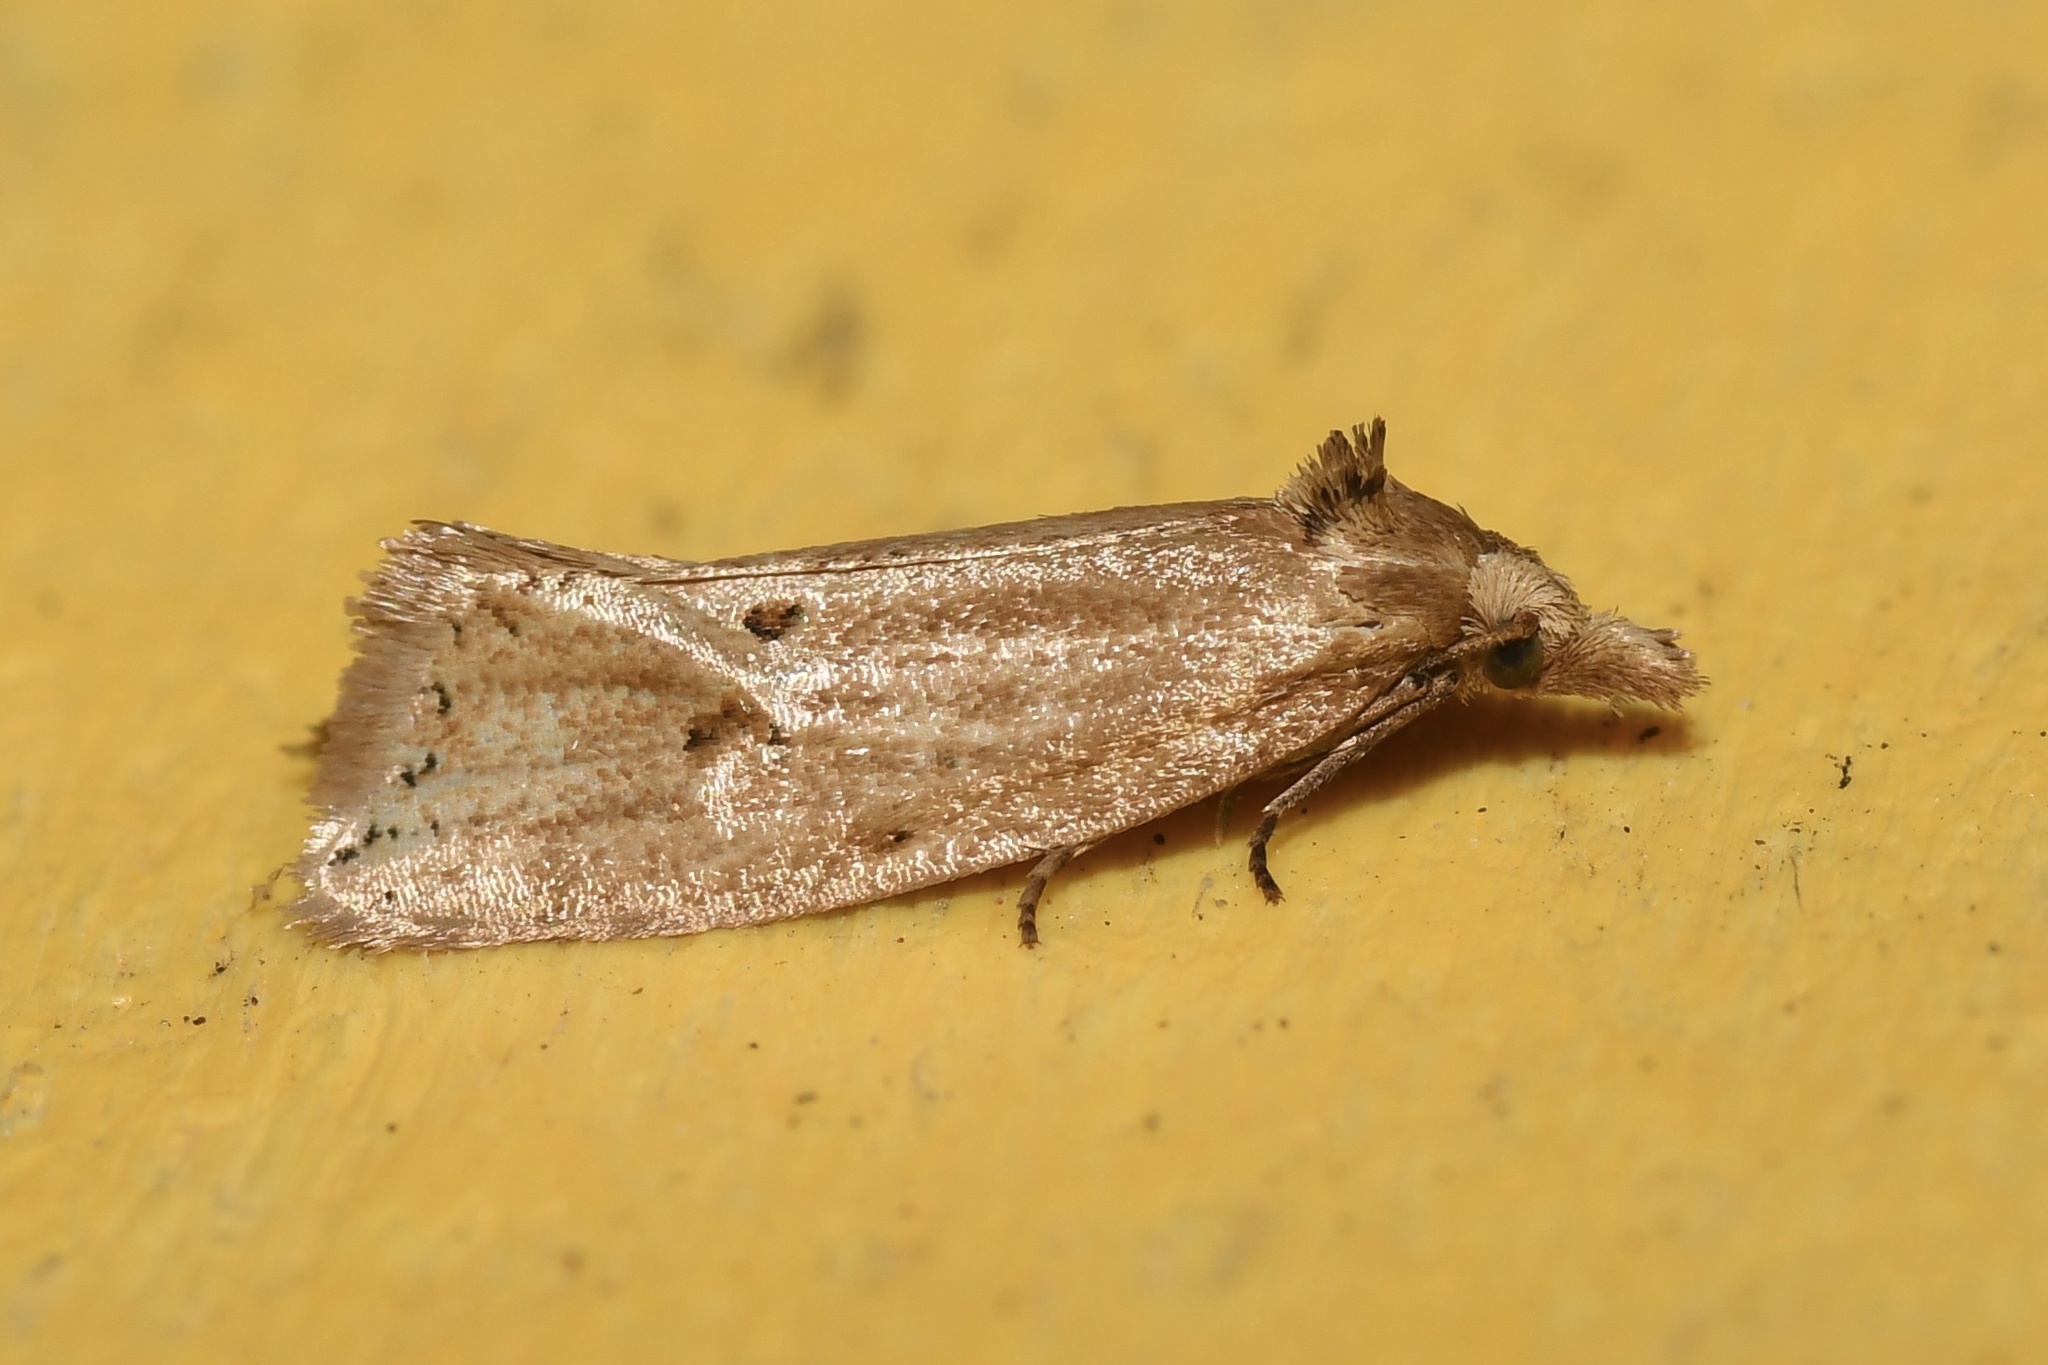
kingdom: Animalia
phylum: Arthropoda
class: Insecta
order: Lepidoptera
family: Tortricidae
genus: Aethes
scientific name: Aethes atomosana
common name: Two-spotted aethes
